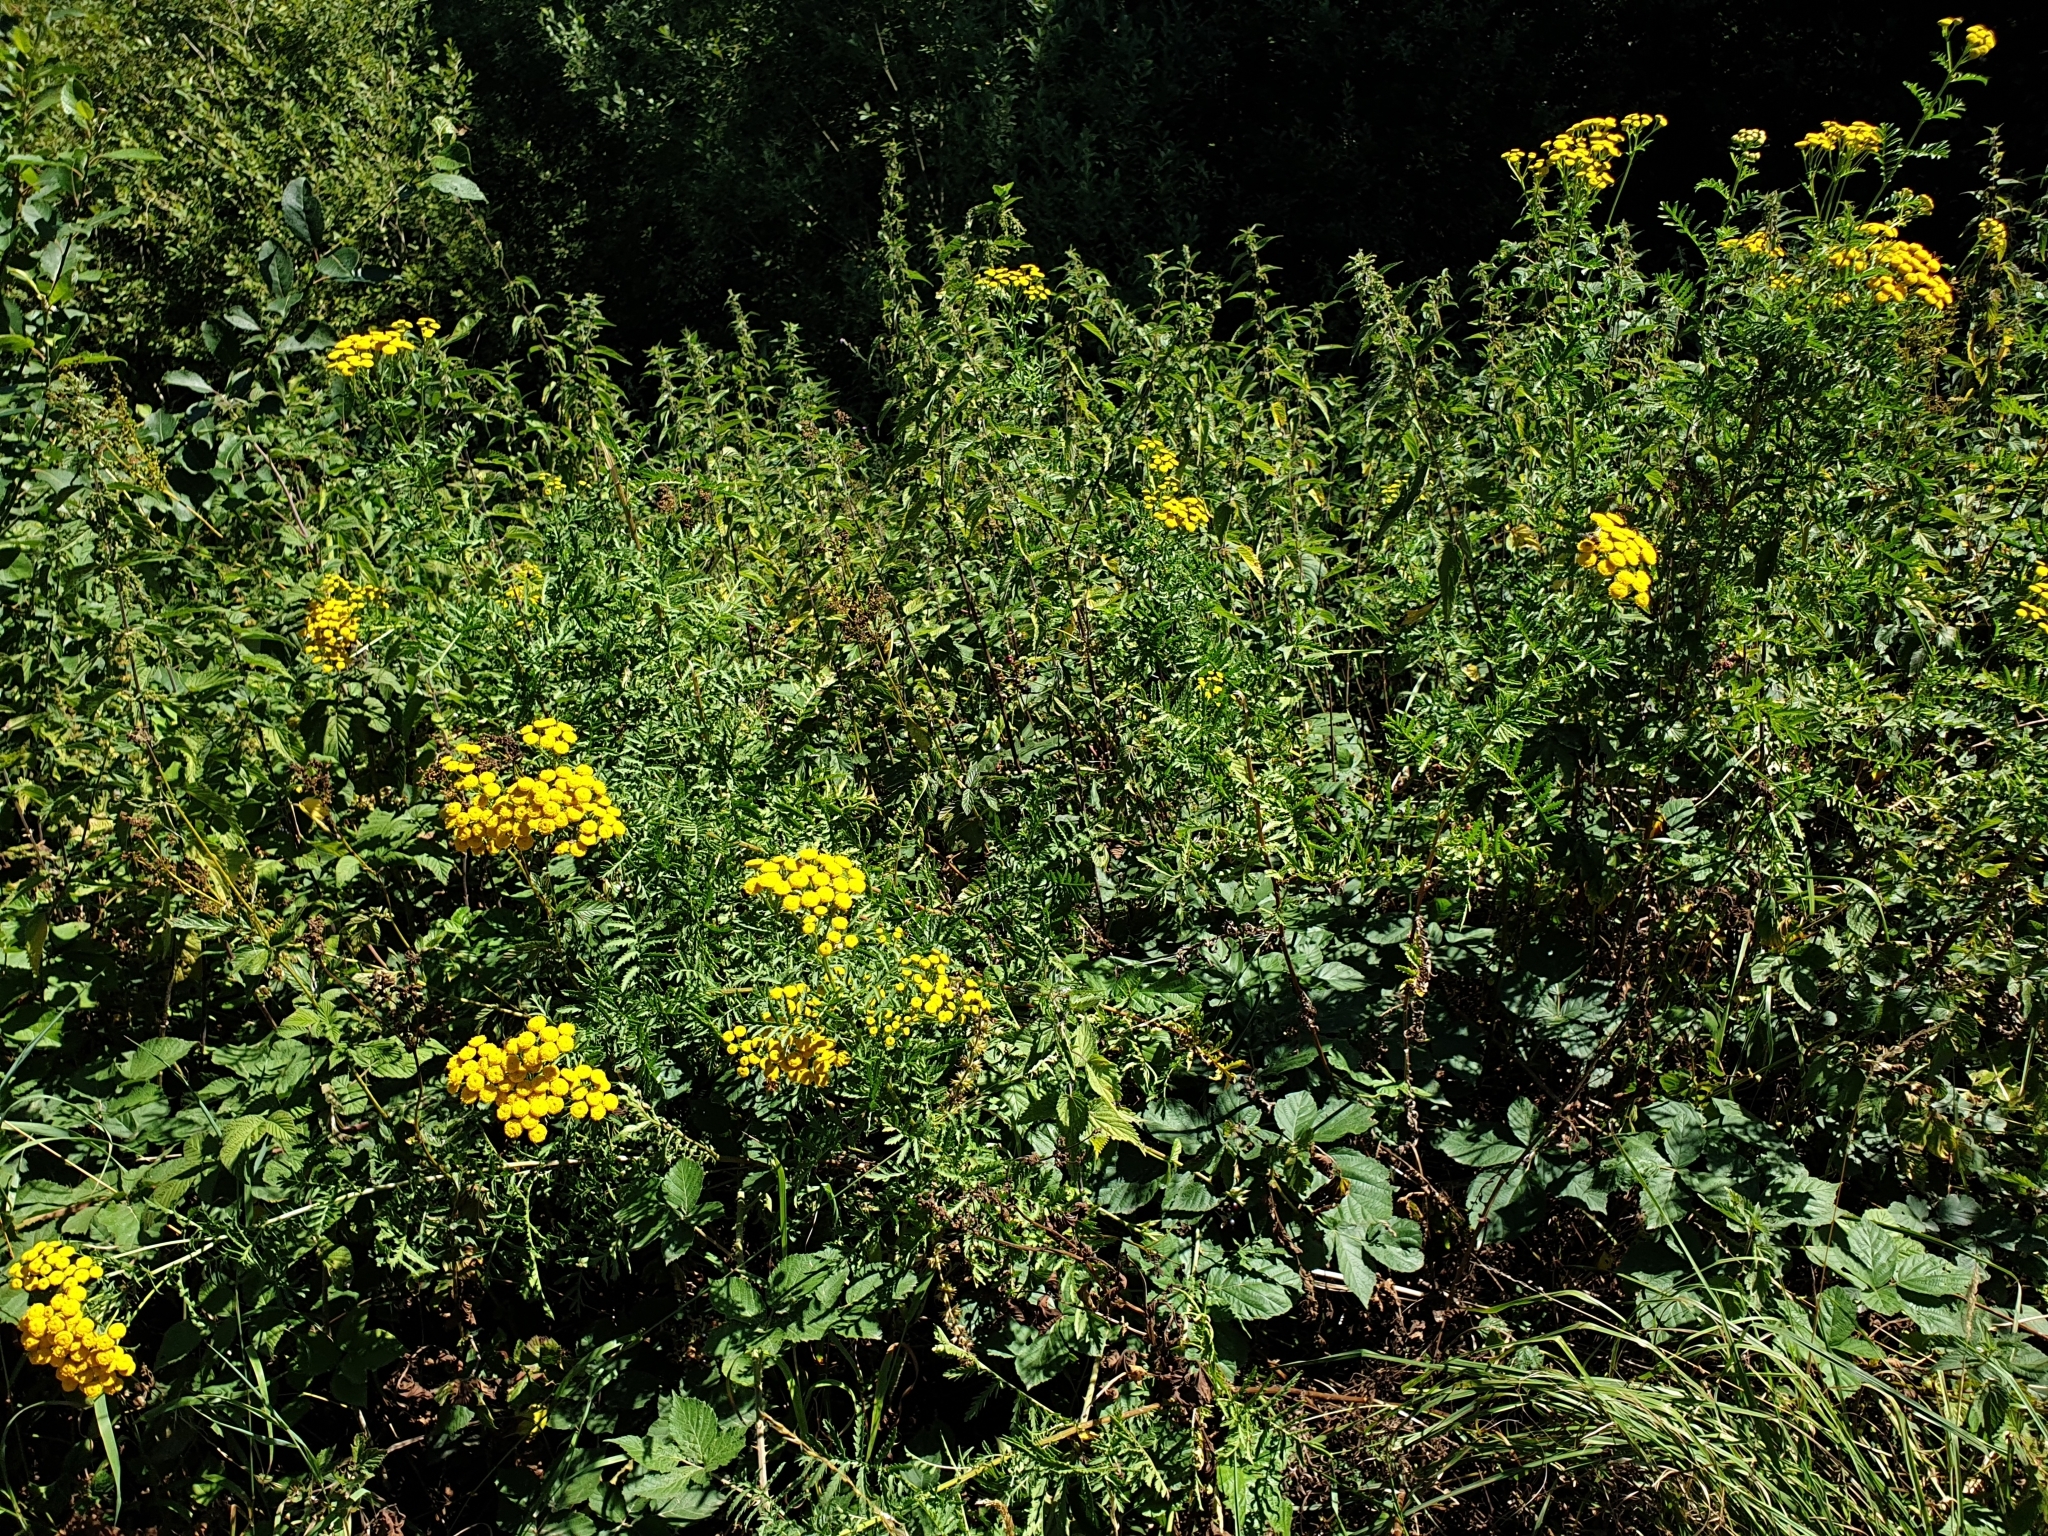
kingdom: Plantae
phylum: Tracheophyta
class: Magnoliopsida
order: Asterales
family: Asteraceae
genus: Tanacetum
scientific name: Tanacetum vulgare
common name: Common tansy
